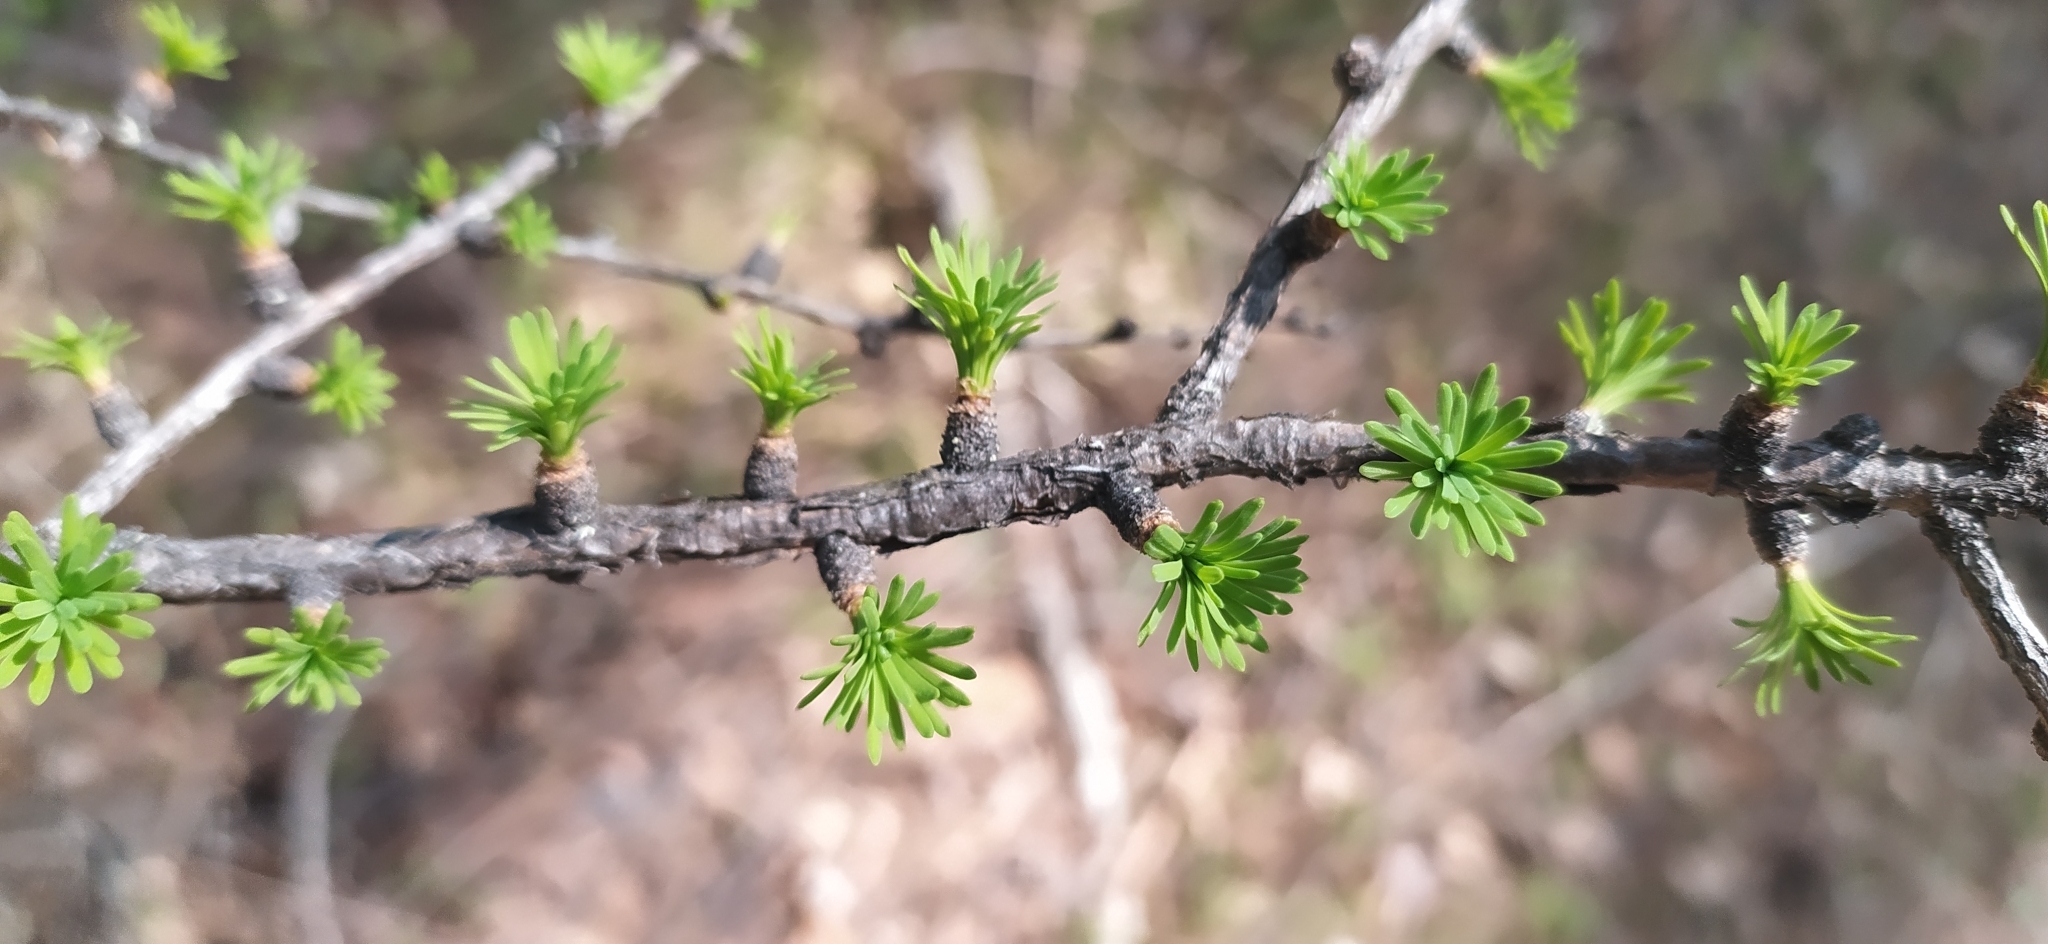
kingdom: Plantae
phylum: Tracheophyta
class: Pinopsida
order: Pinales
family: Pinaceae
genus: Larix
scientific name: Larix sibirica
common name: Siberian larch
